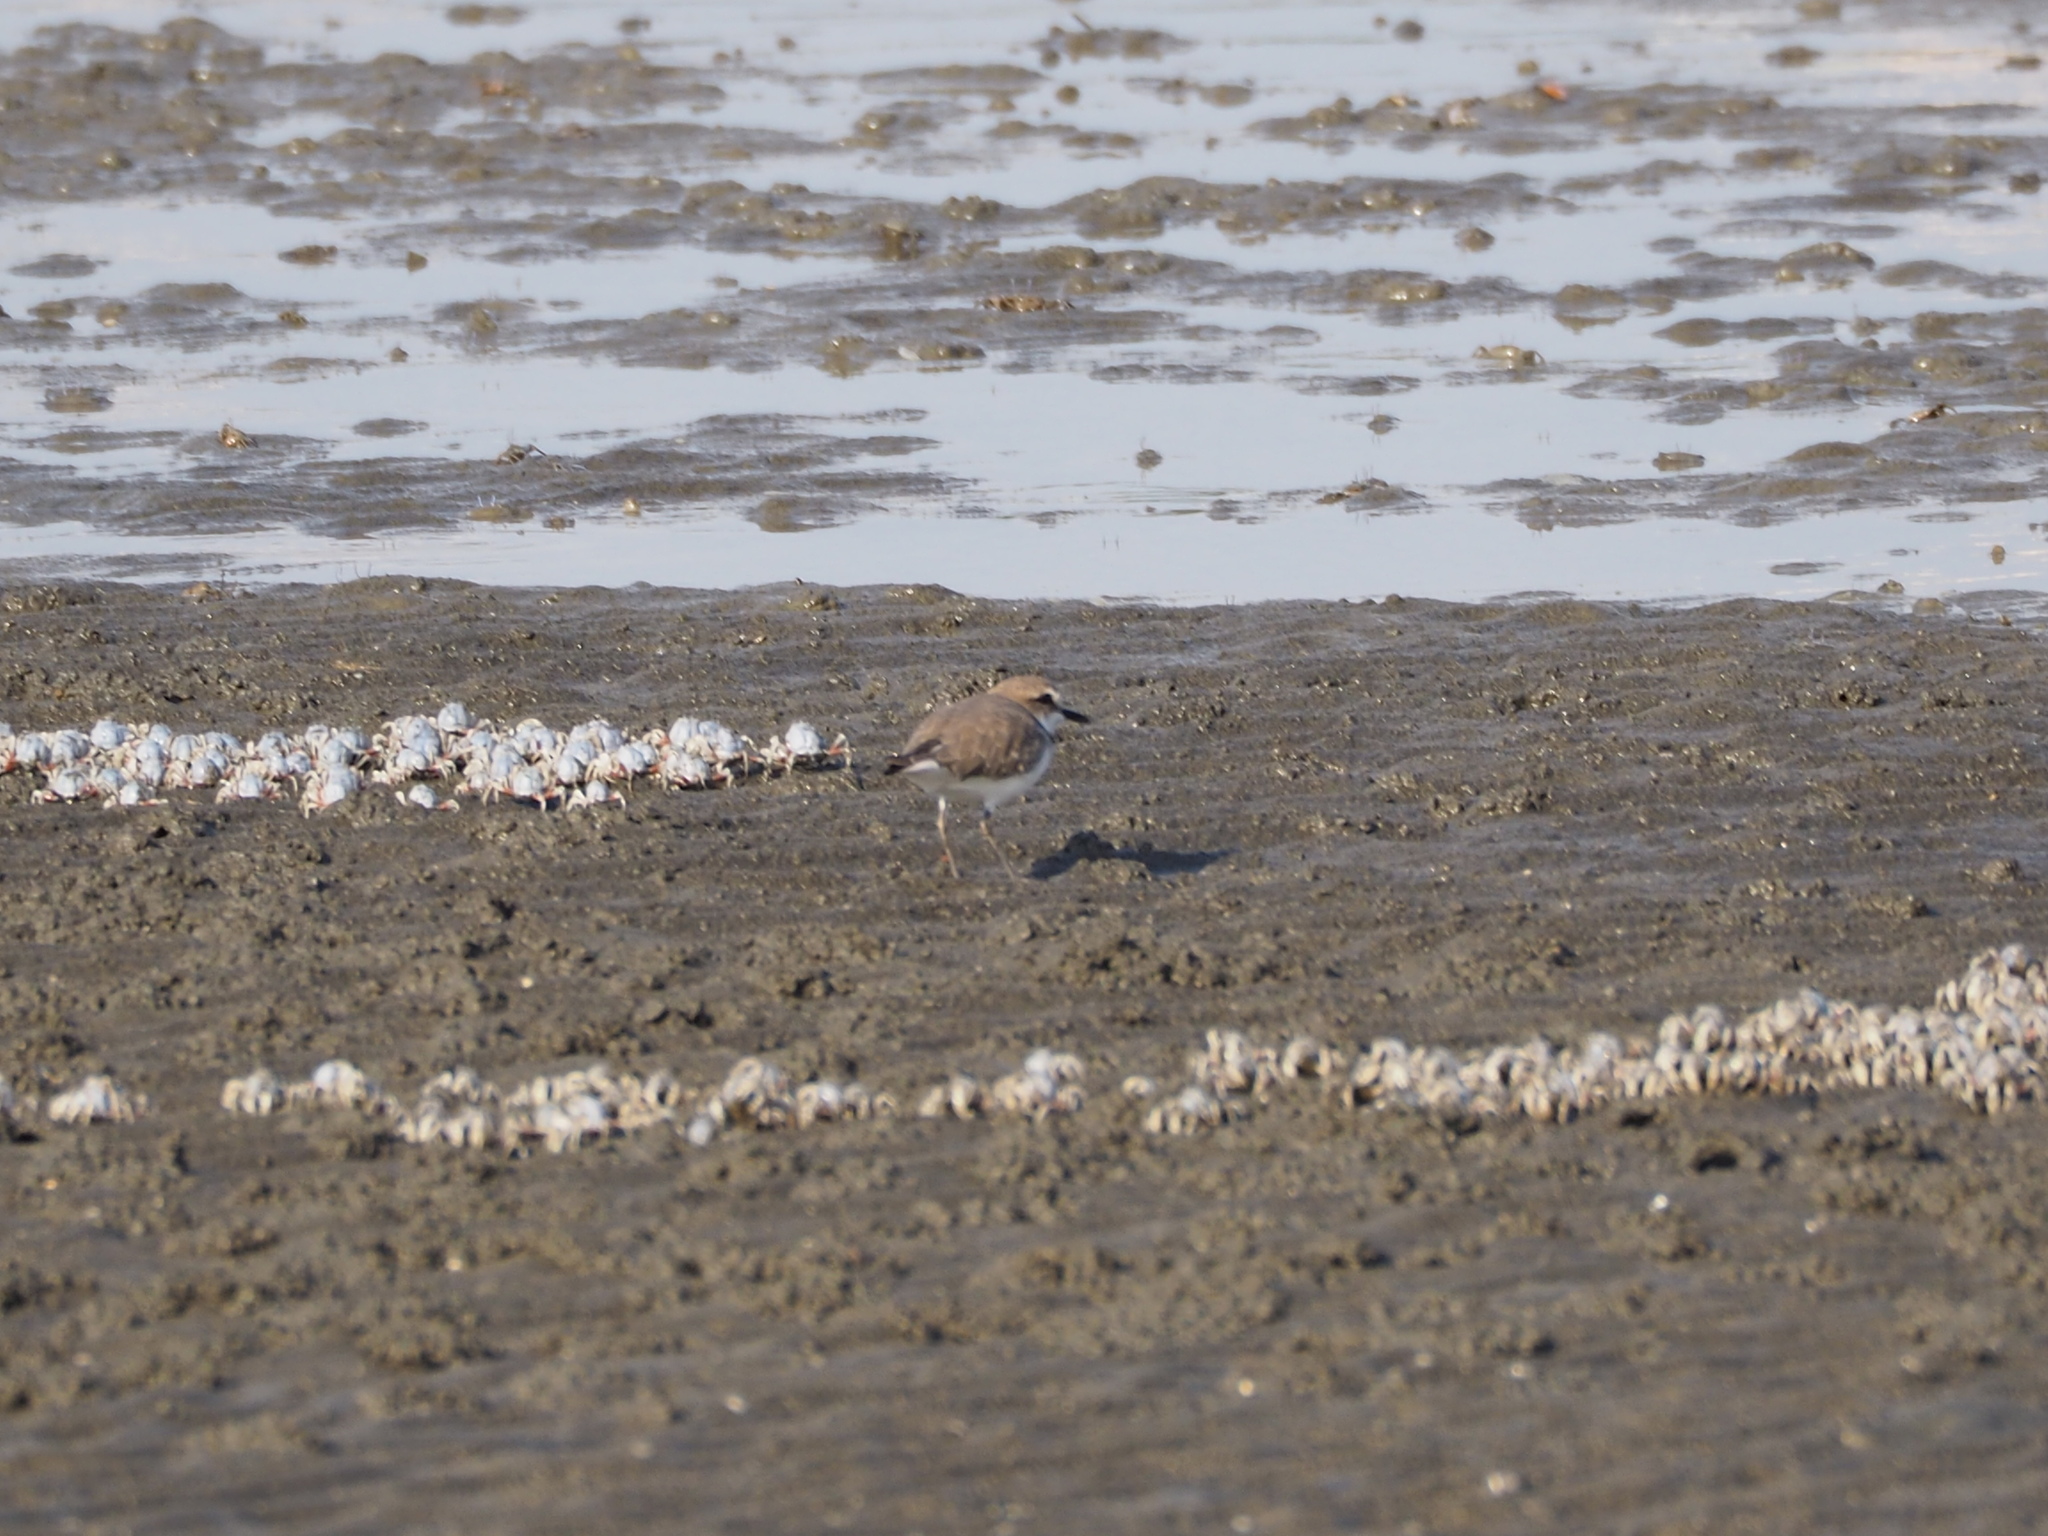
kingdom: Animalia
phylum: Chordata
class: Aves
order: Charadriiformes
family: Charadriidae
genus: Charadrius
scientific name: Charadrius alexandrinus
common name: Kentish plover
